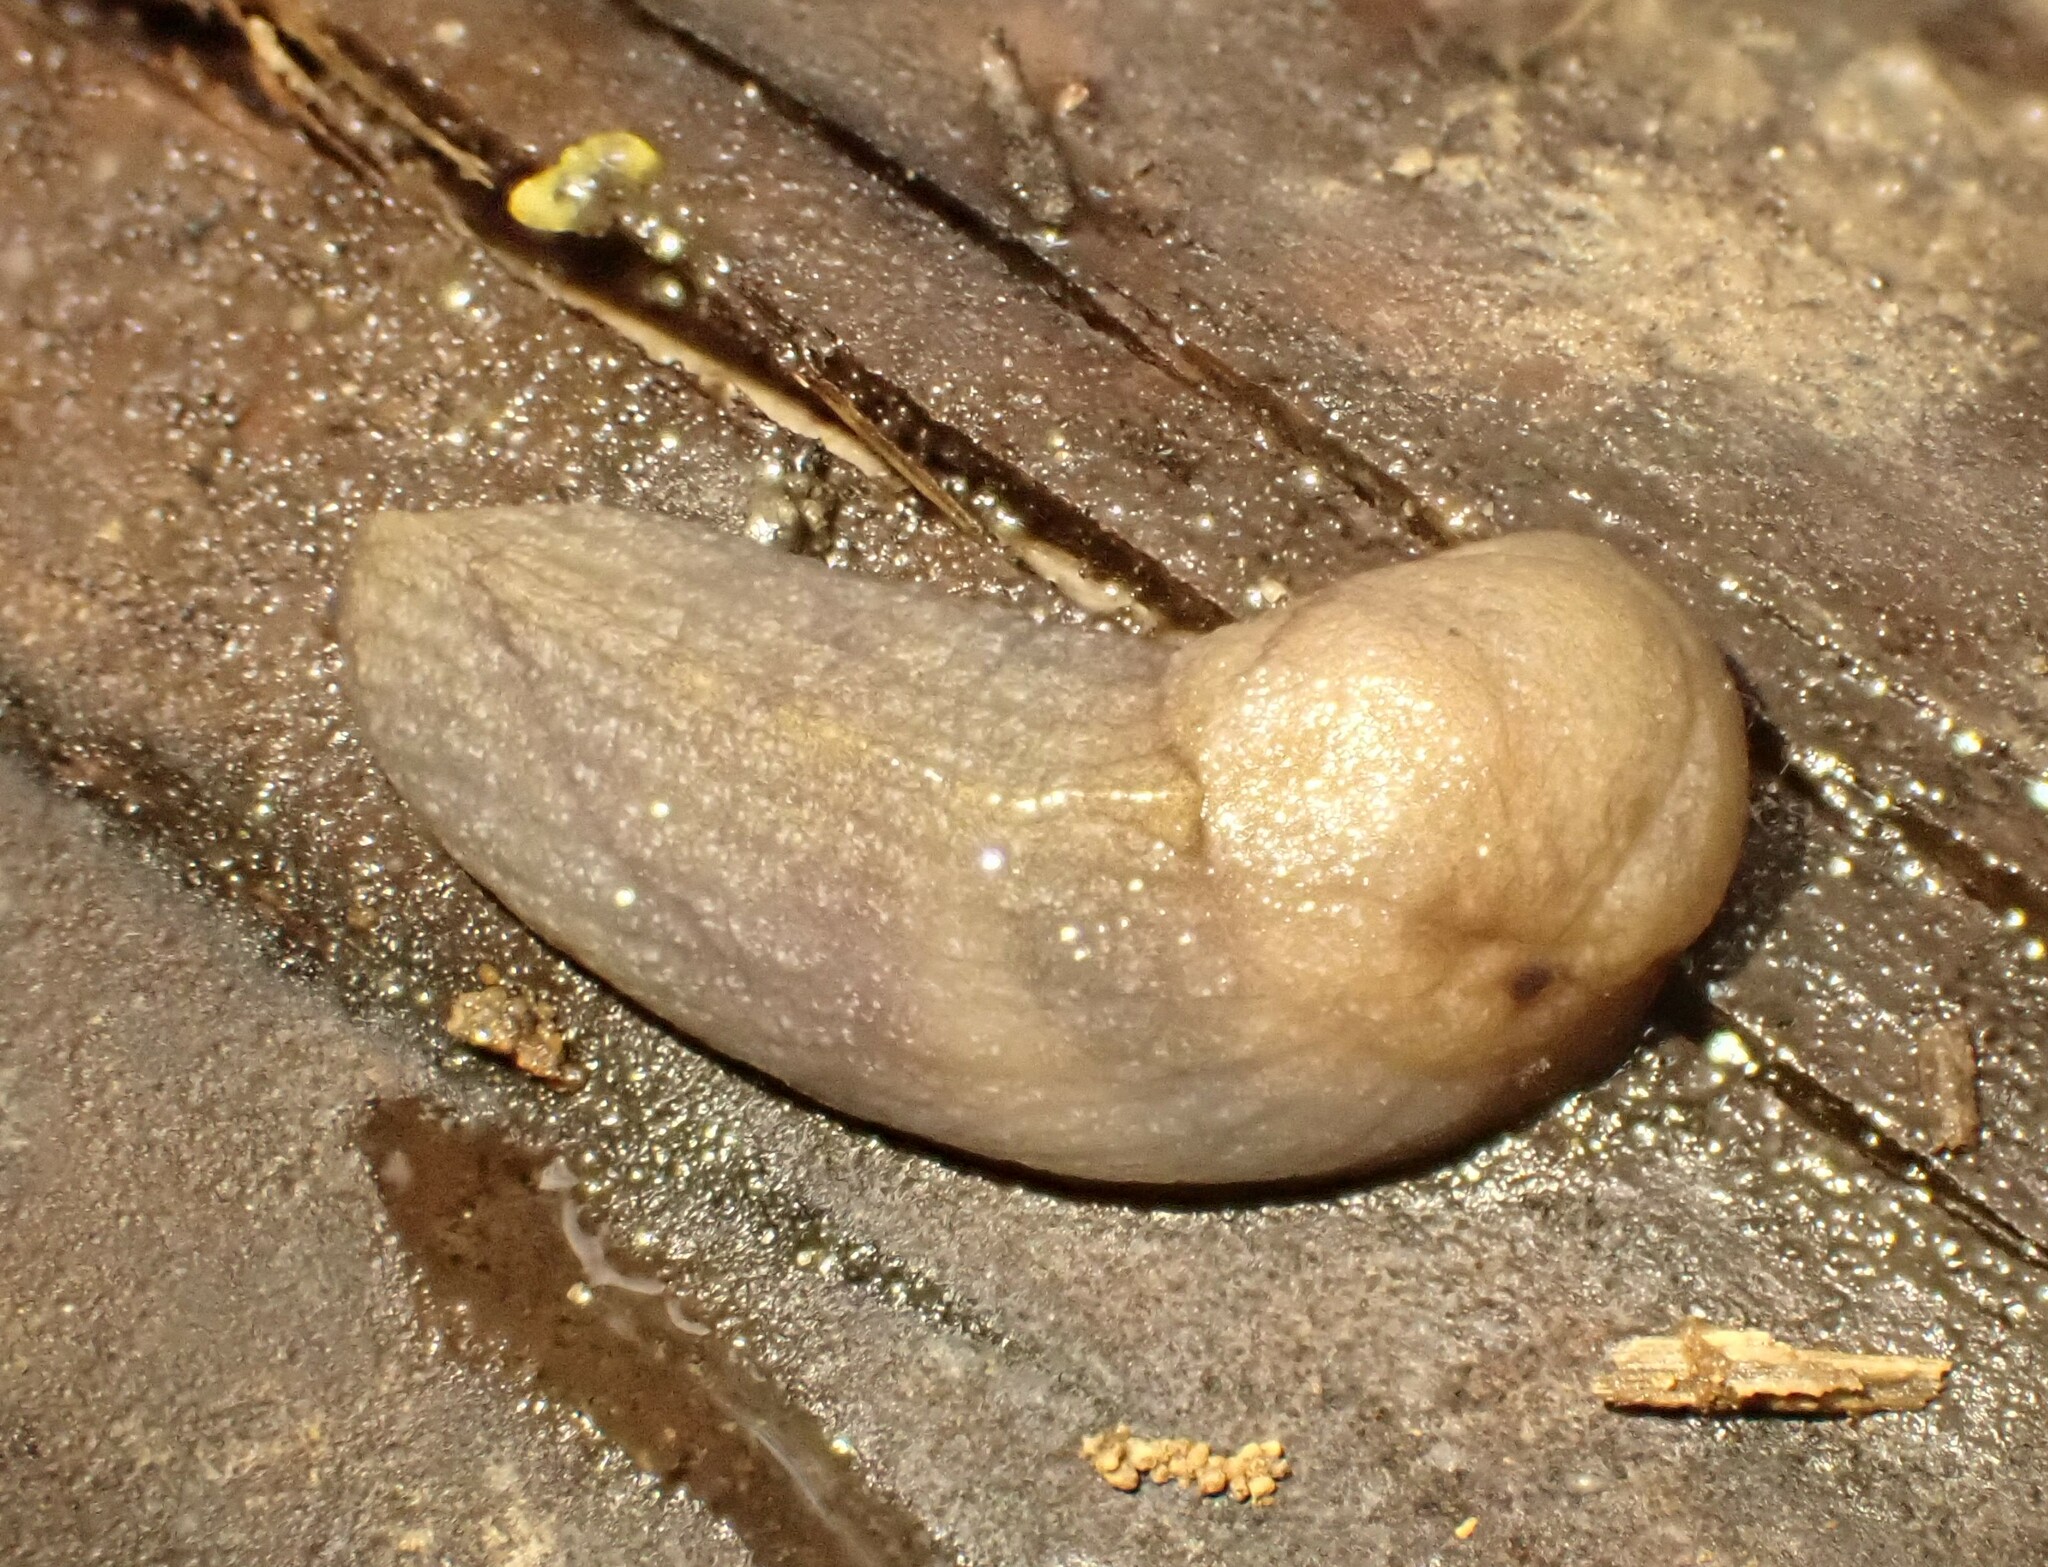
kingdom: Animalia
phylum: Mollusca
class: Gastropoda
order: Stylommatophora
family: Milacidae
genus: Milax
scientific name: Milax gagates
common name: Greenhouse slug
